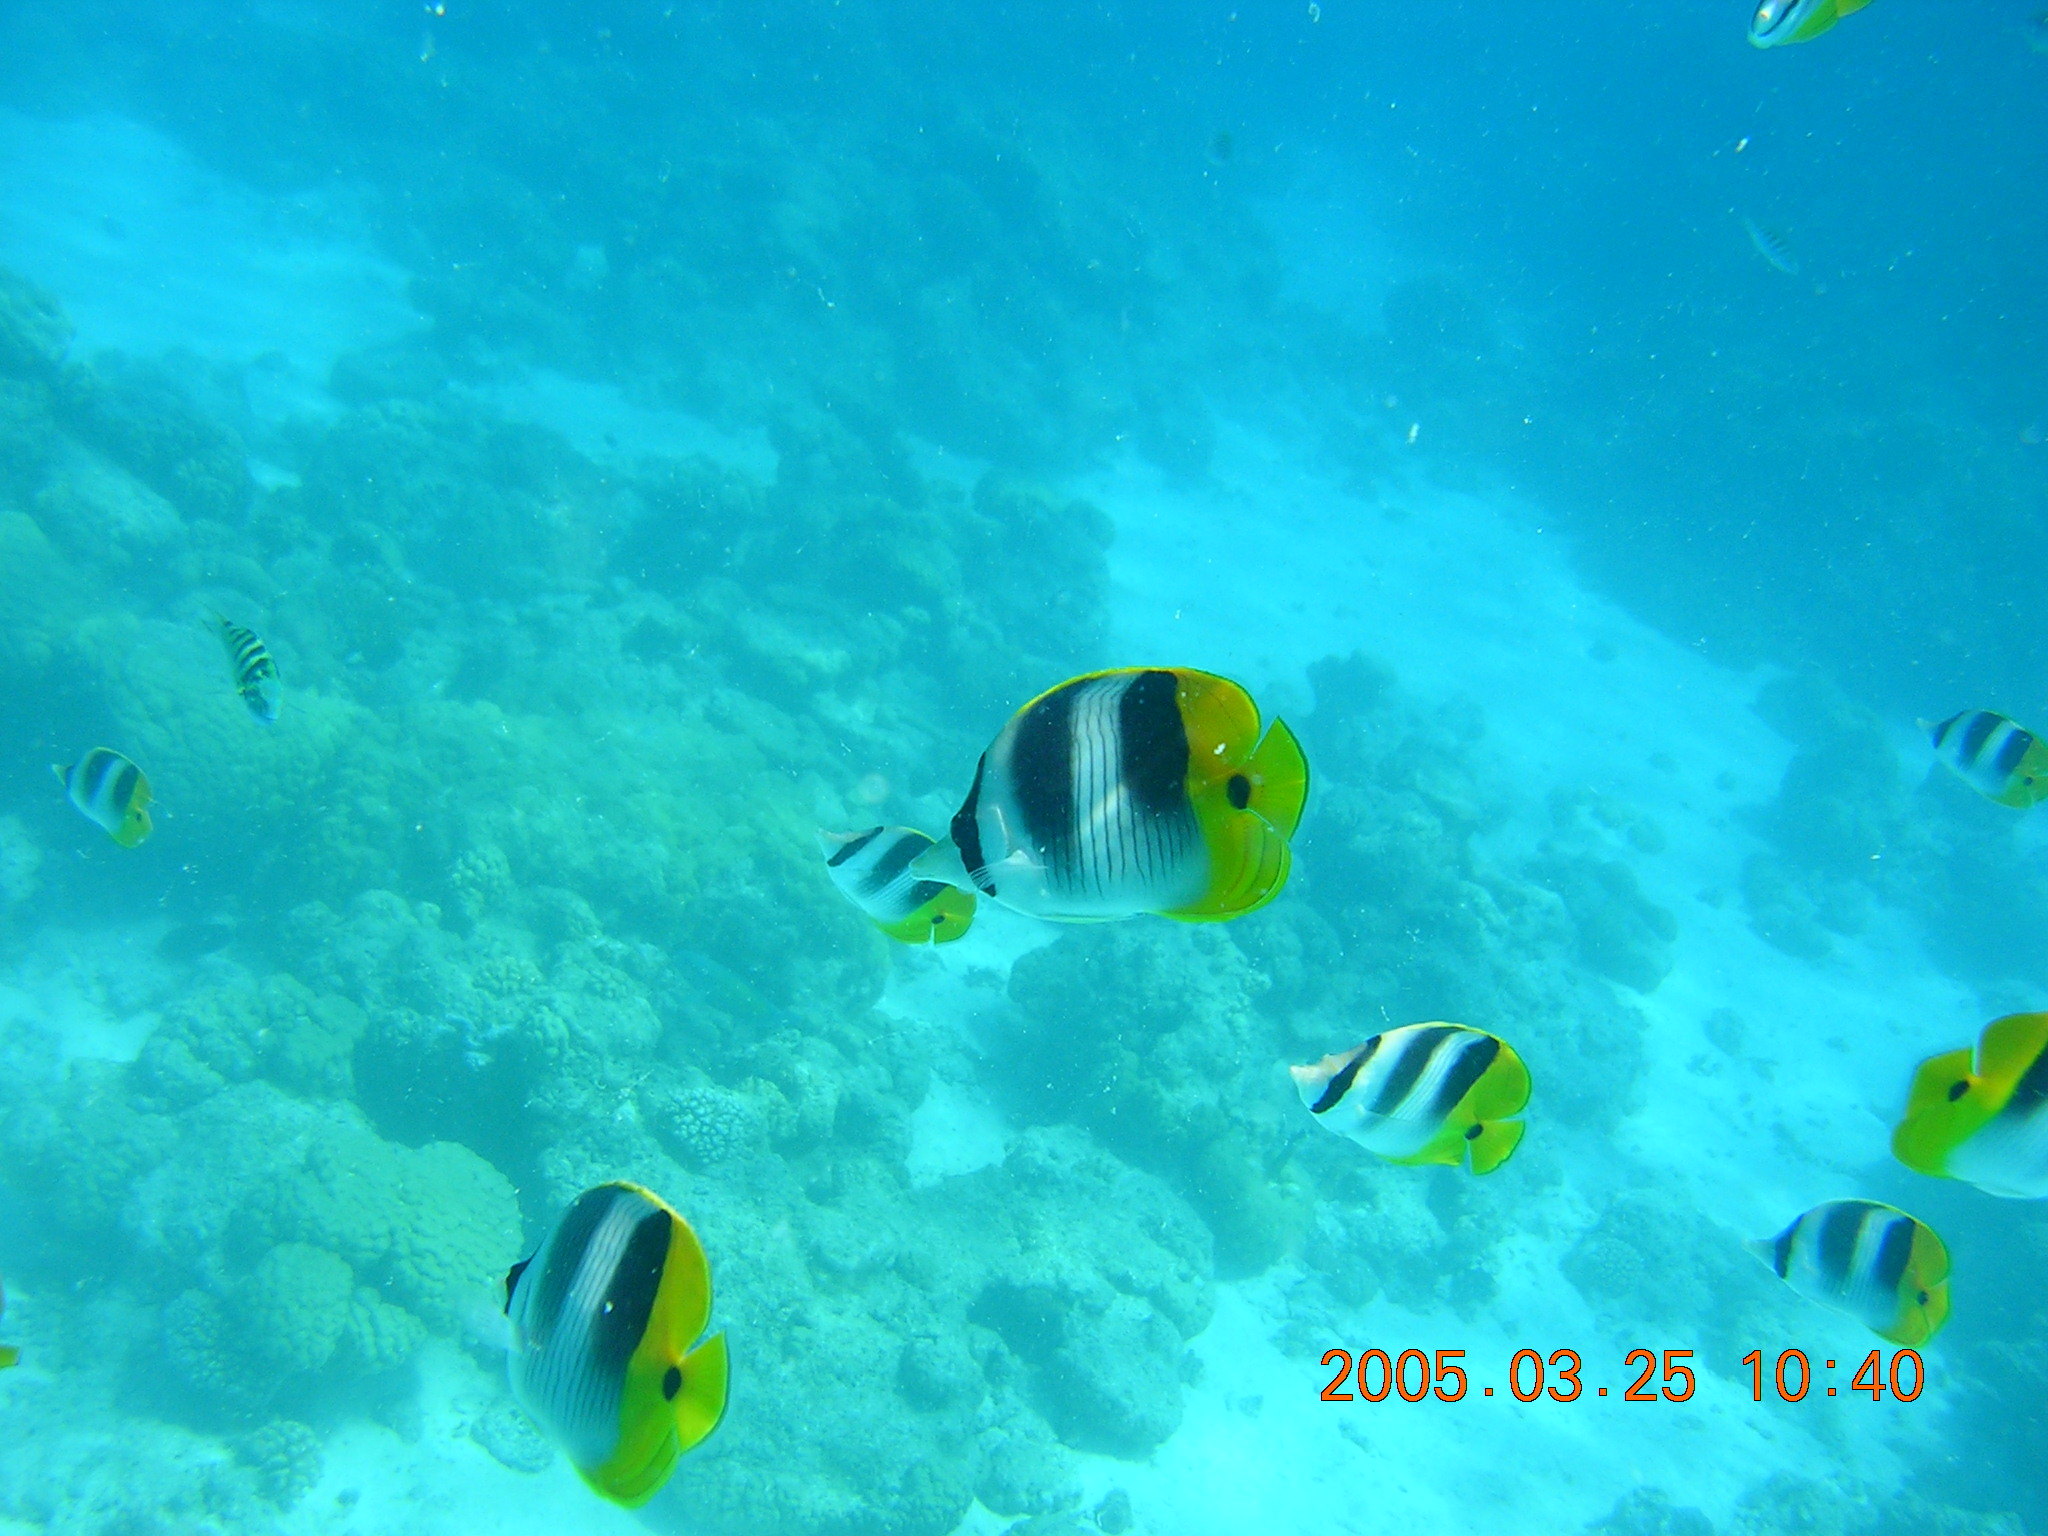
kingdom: Animalia
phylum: Chordata
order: Perciformes
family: Chaetodontidae
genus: Chaetodon
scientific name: Chaetodon ulietensis
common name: Pacific double-saddle butterflyfish
